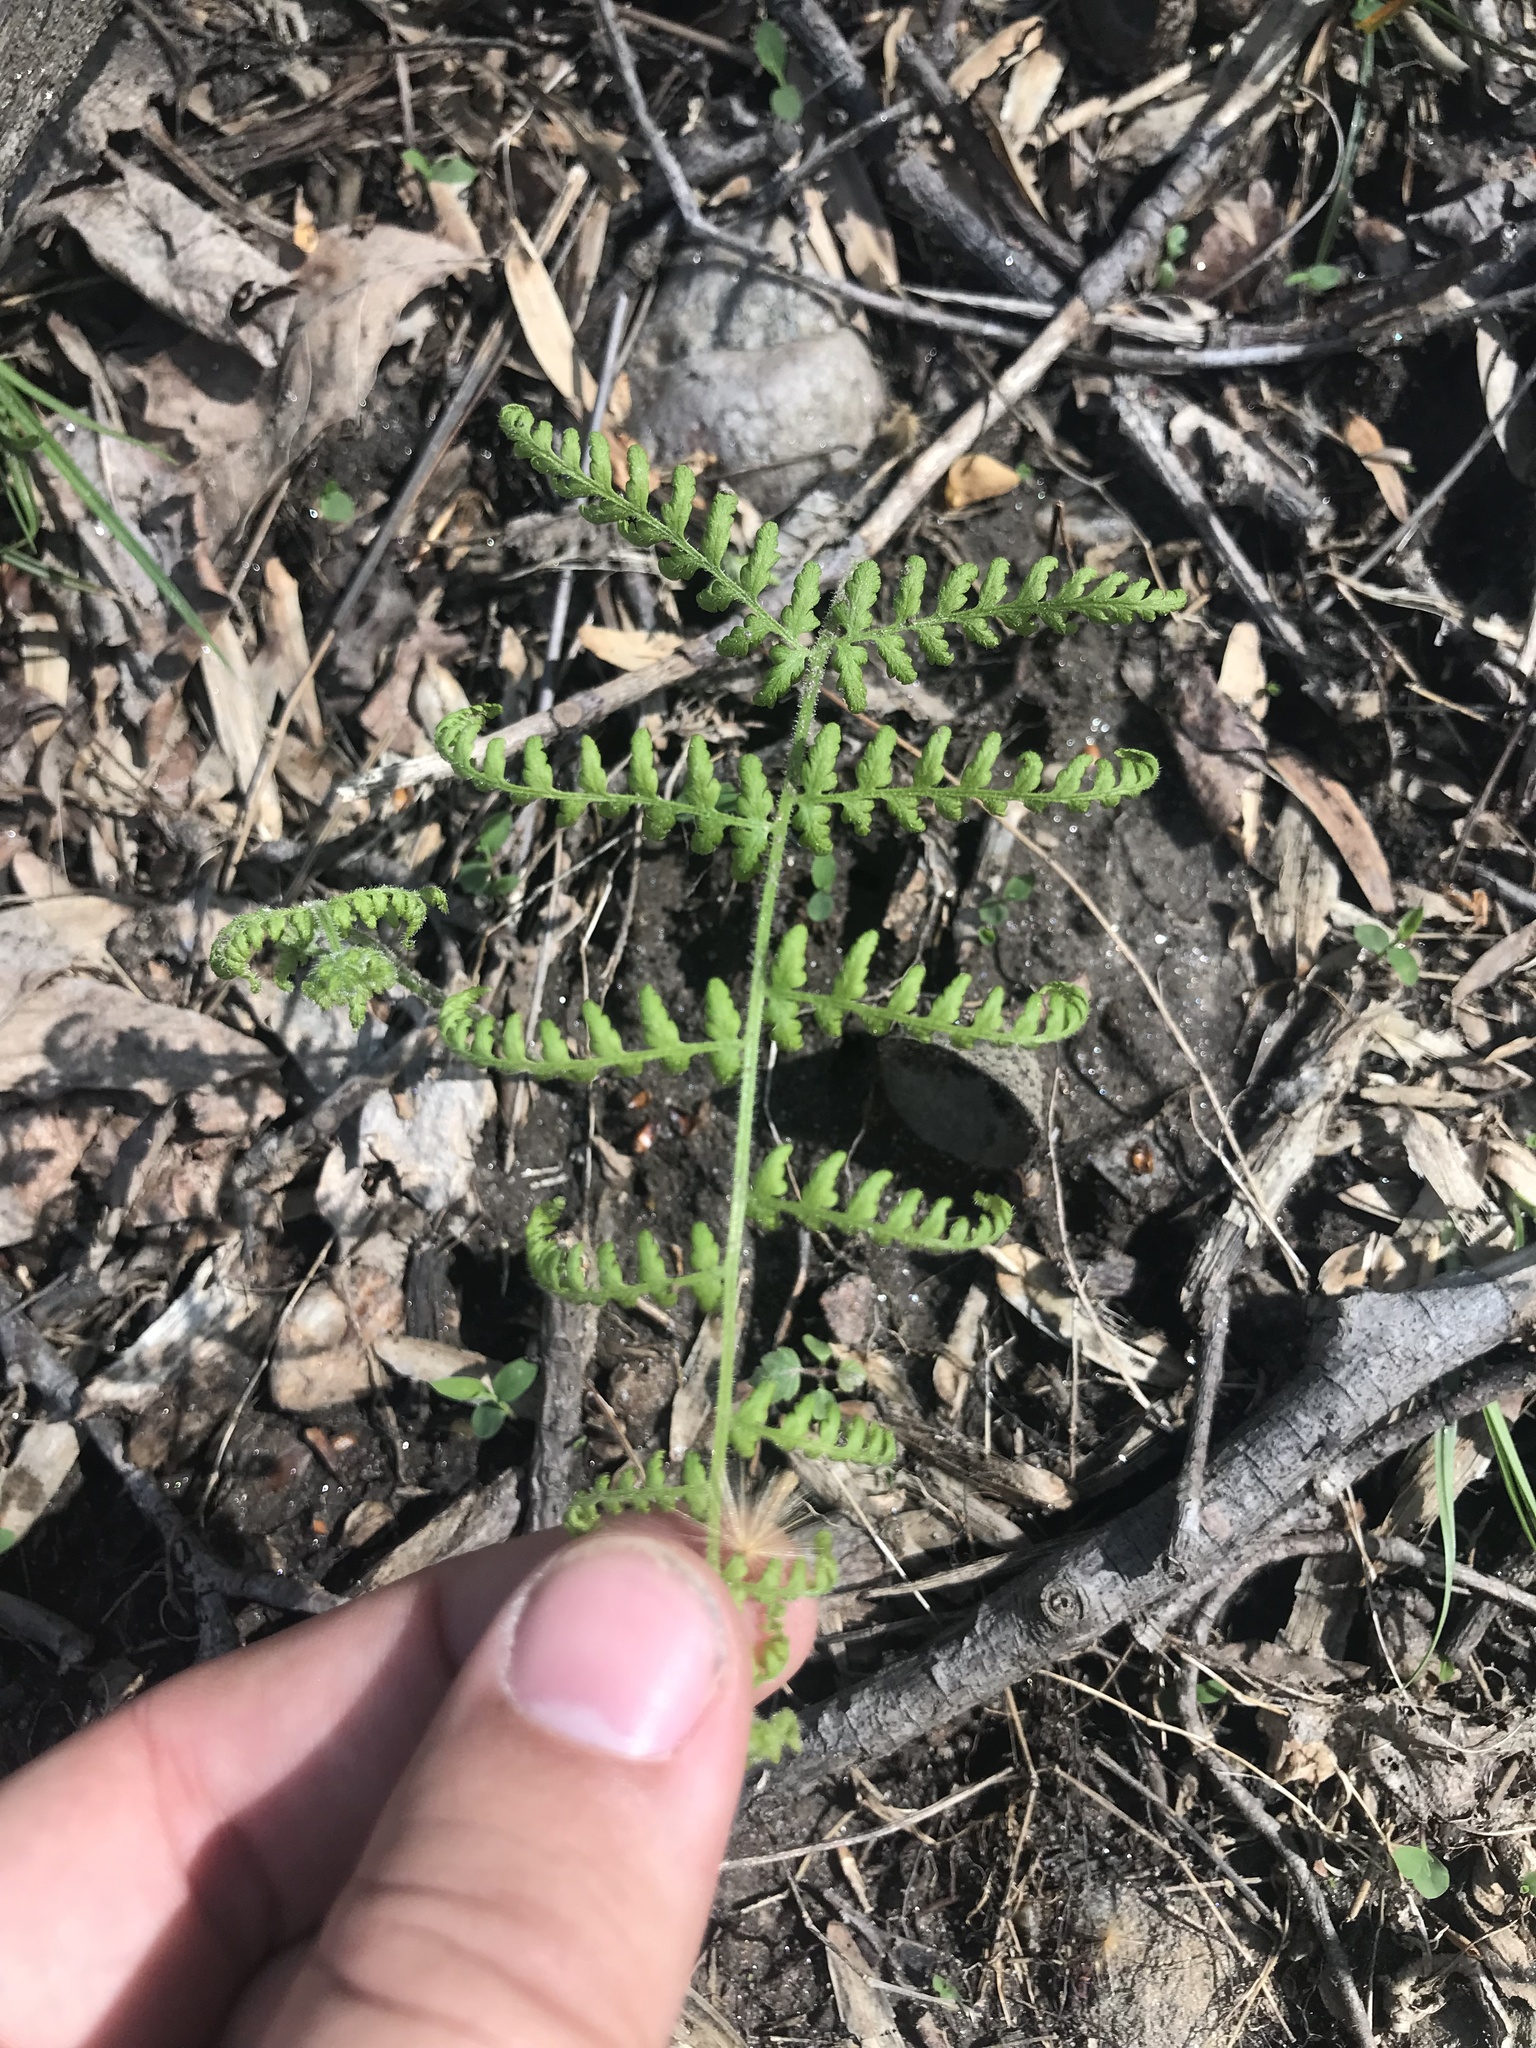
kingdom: Plantae
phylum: Tracheophyta
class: Polypodiopsida
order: Polypodiales
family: Dennstaedtiaceae
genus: Sitobolium
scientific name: Sitobolium punctilobum
